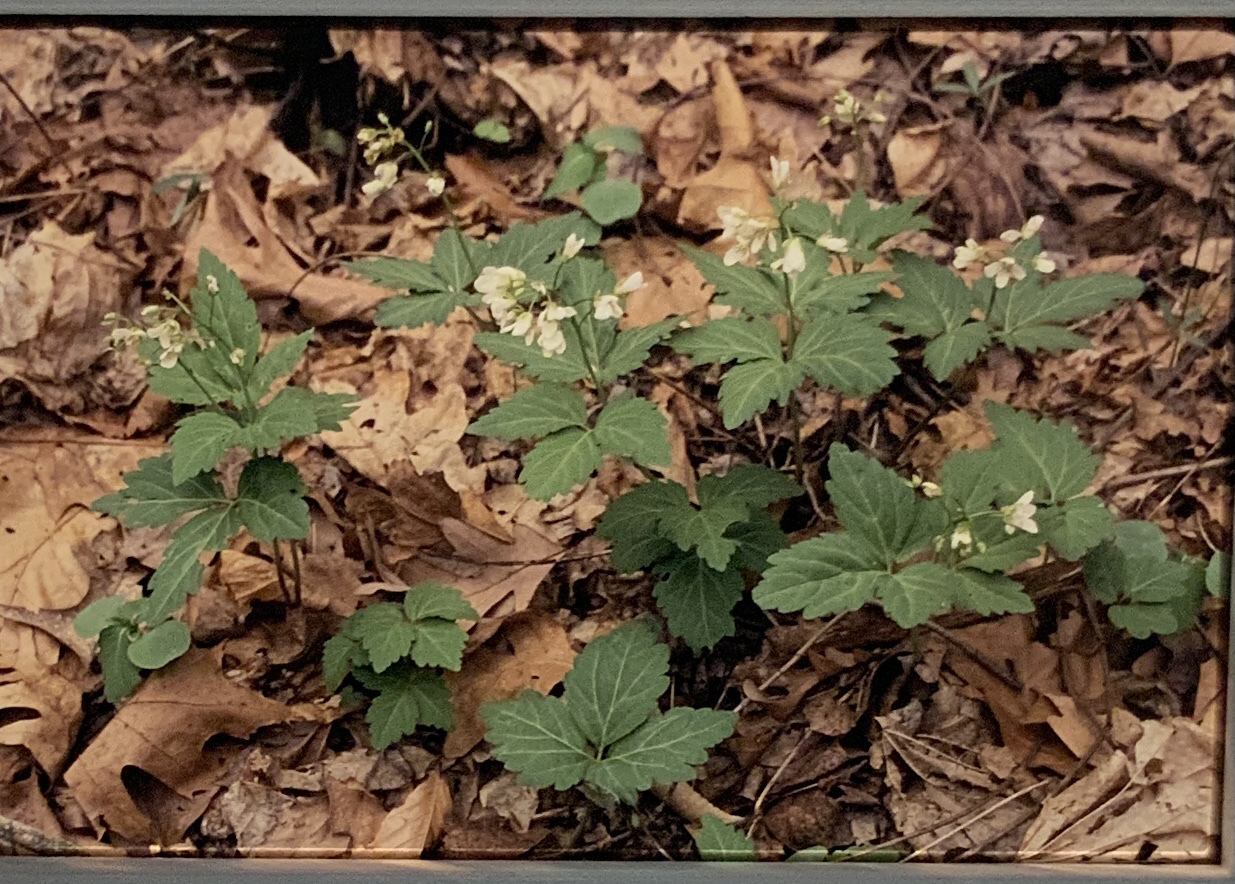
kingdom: Plantae
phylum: Tracheophyta
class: Magnoliopsida
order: Brassicales
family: Brassicaceae
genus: Cardamine
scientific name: Cardamine diphylla
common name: Broad-leaved toothwort
